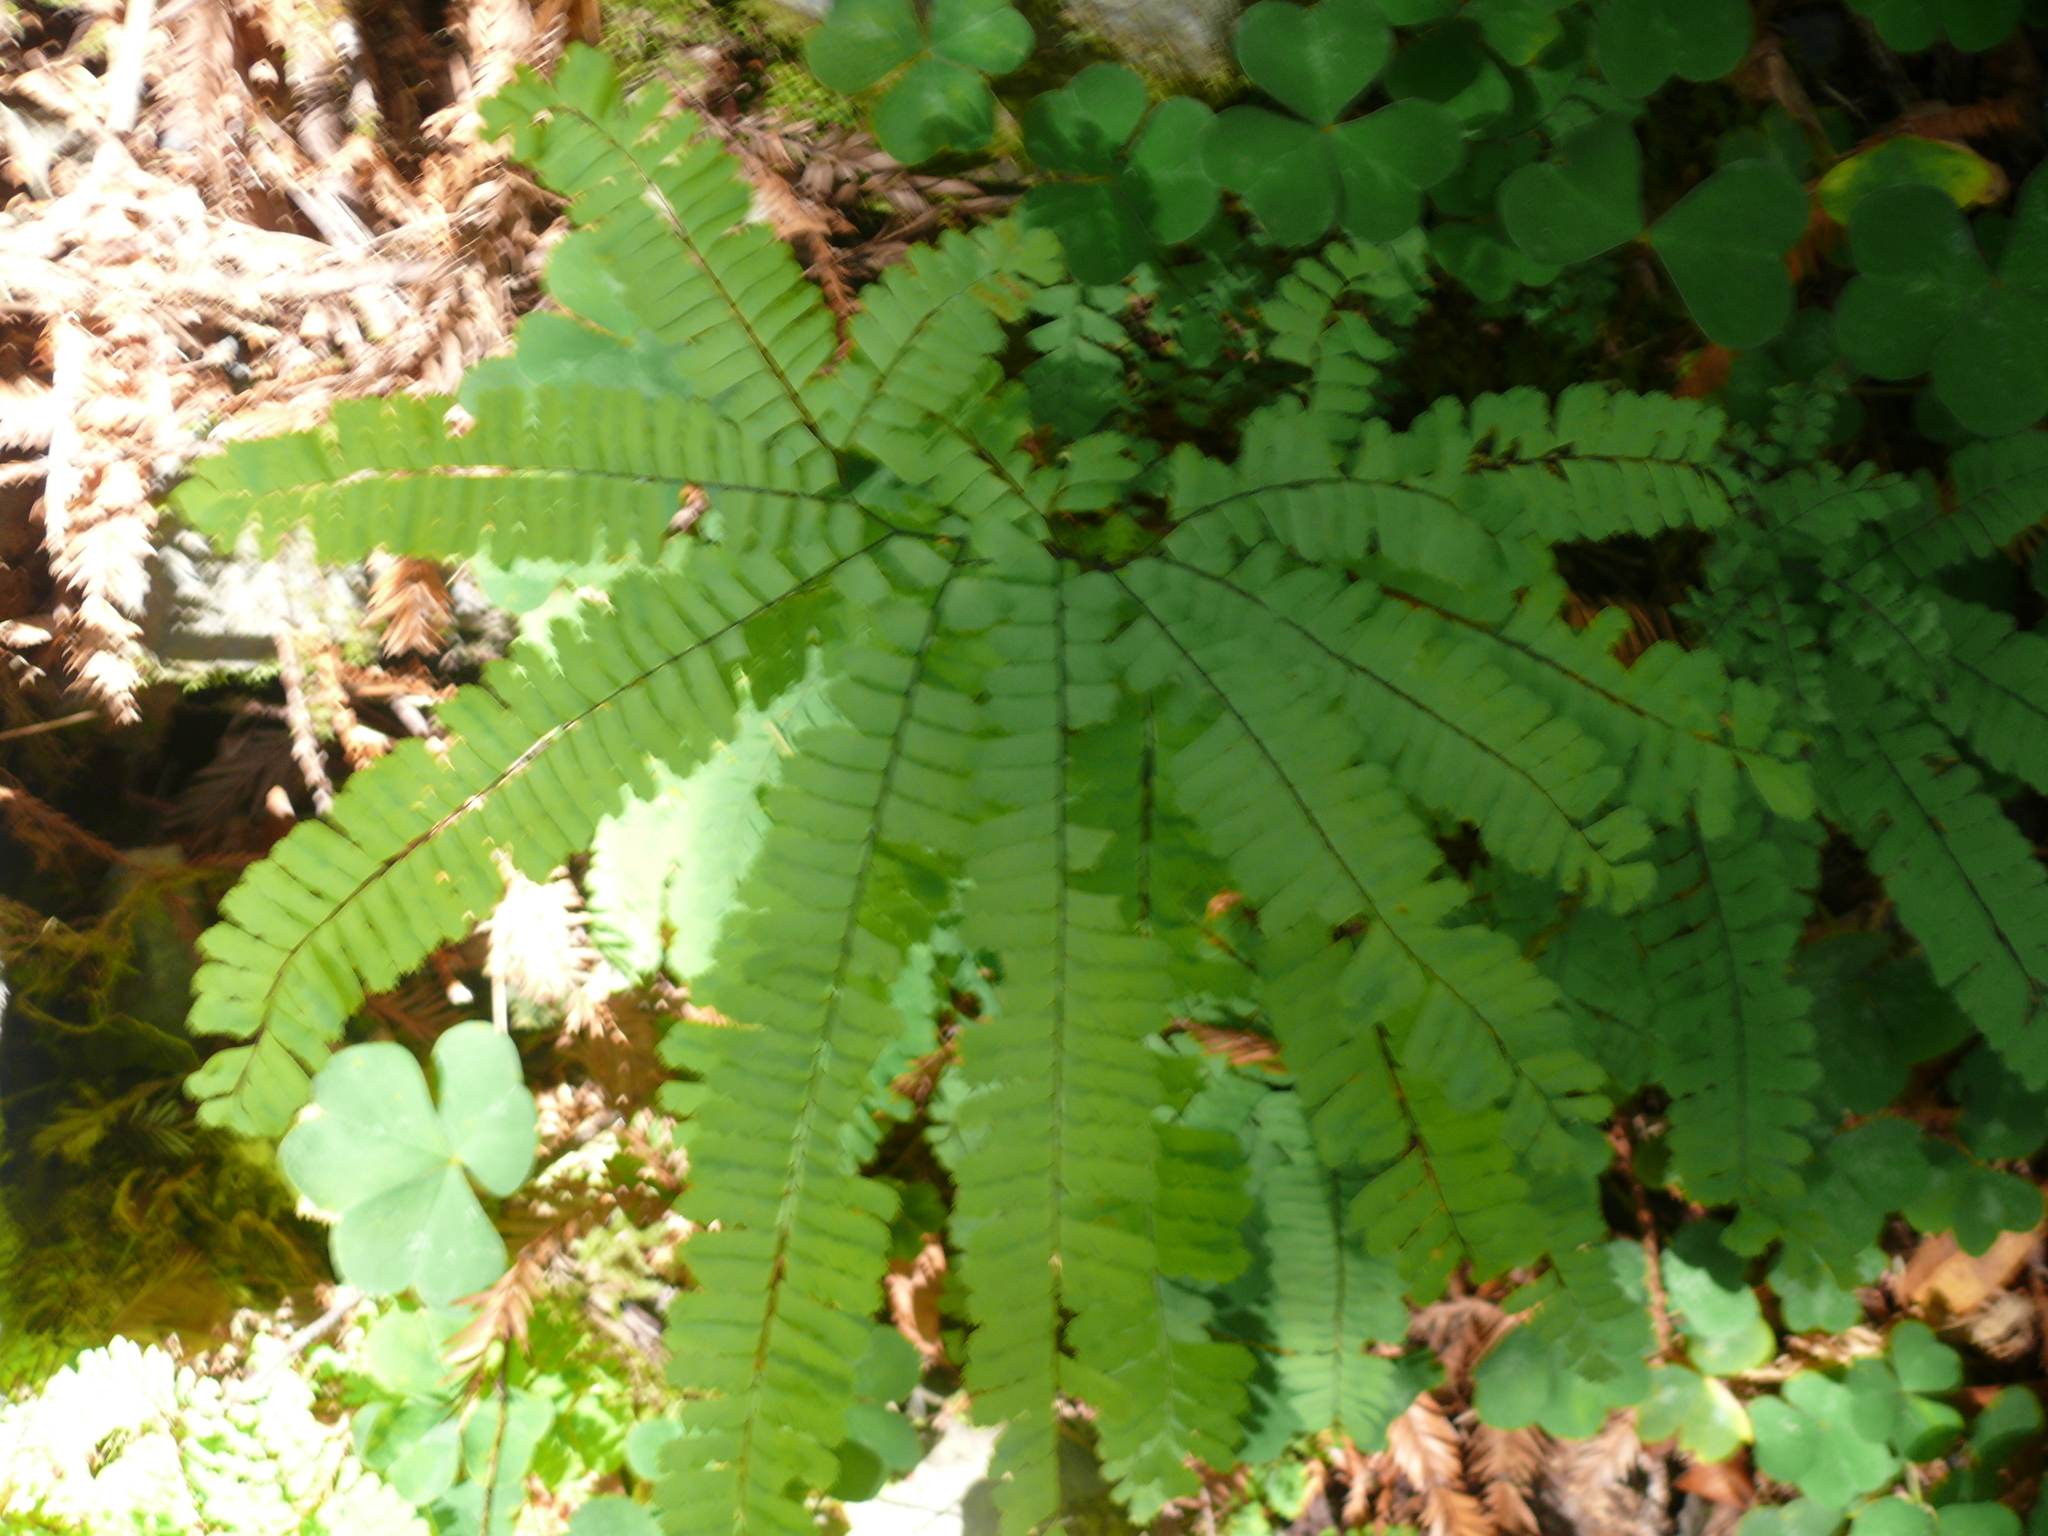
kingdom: Plantae
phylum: Tracheophyta
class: Polypodiopsida
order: Polypodiales
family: Pteridaceae
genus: Adiantum
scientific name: Adiantum aleuticum
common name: Aleutian maidenhair fern
